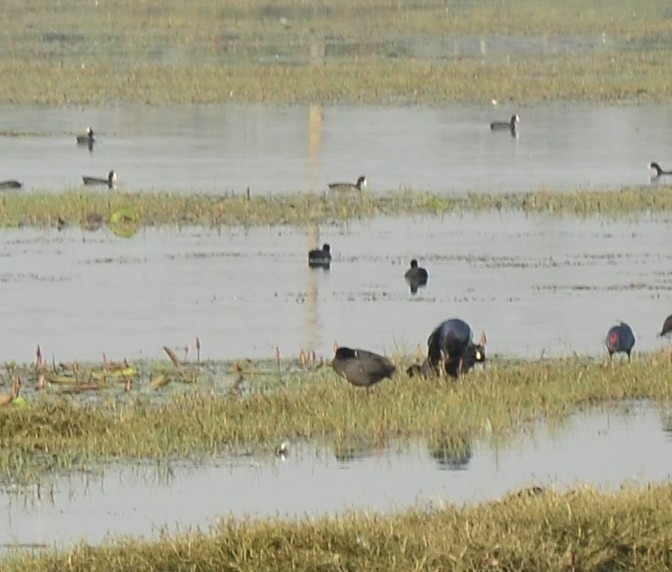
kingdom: Animalia
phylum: Chordata
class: Aves
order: Gruiformes
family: Rallidae
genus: Fulica
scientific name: Fulica atra
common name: Eurasian coot
